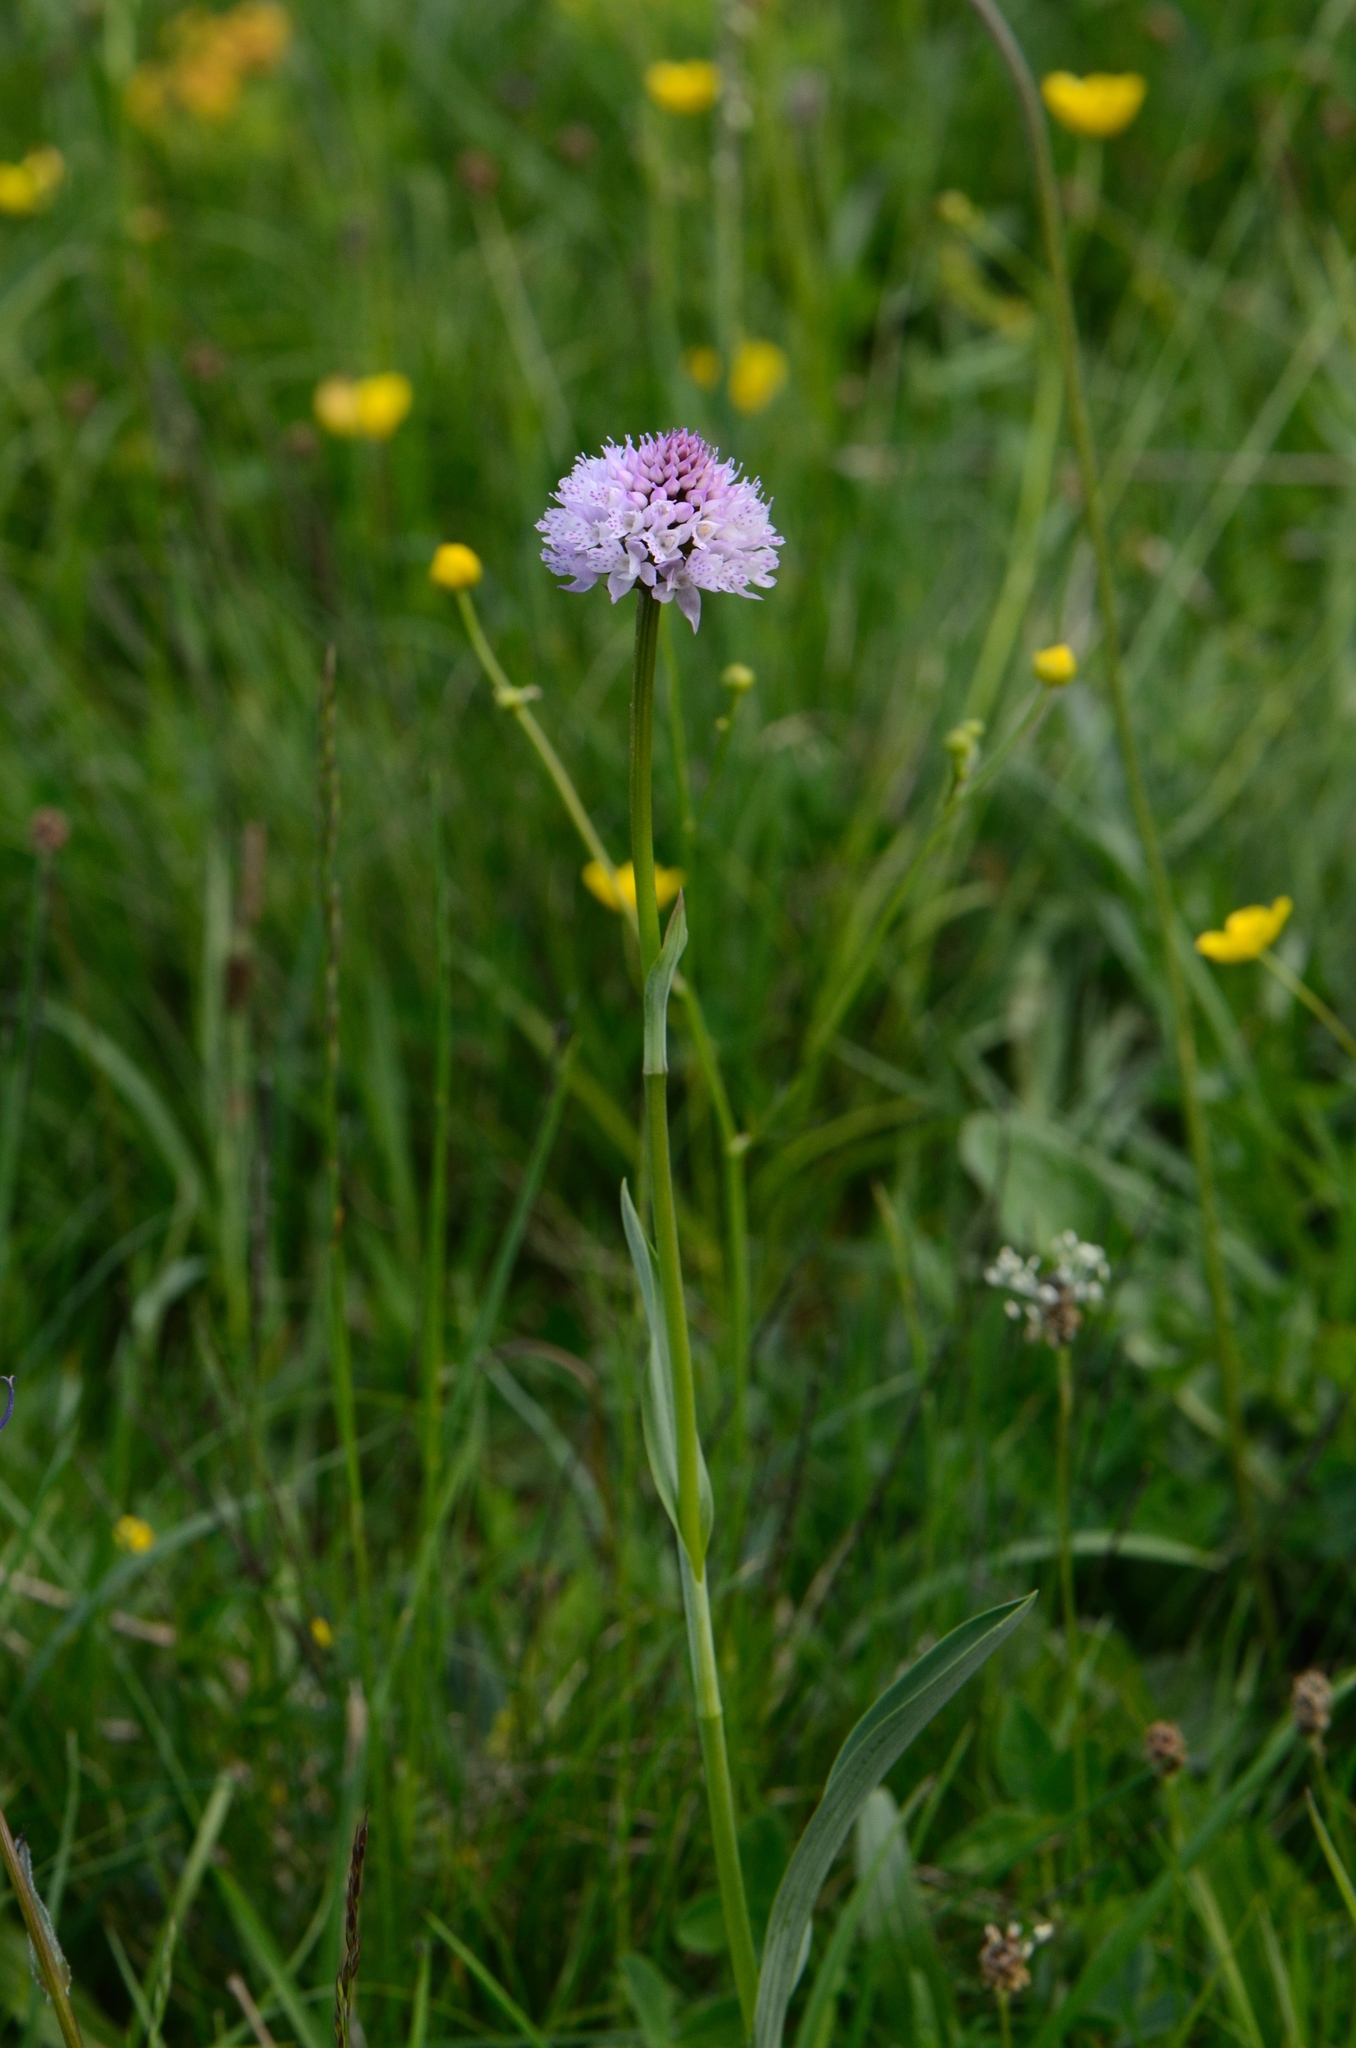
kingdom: Plantae
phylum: Tracheophyta
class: Liliopsida
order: Asparagales
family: Orchidaceae
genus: Traunsteinera
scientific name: Traunsteinera globosa
